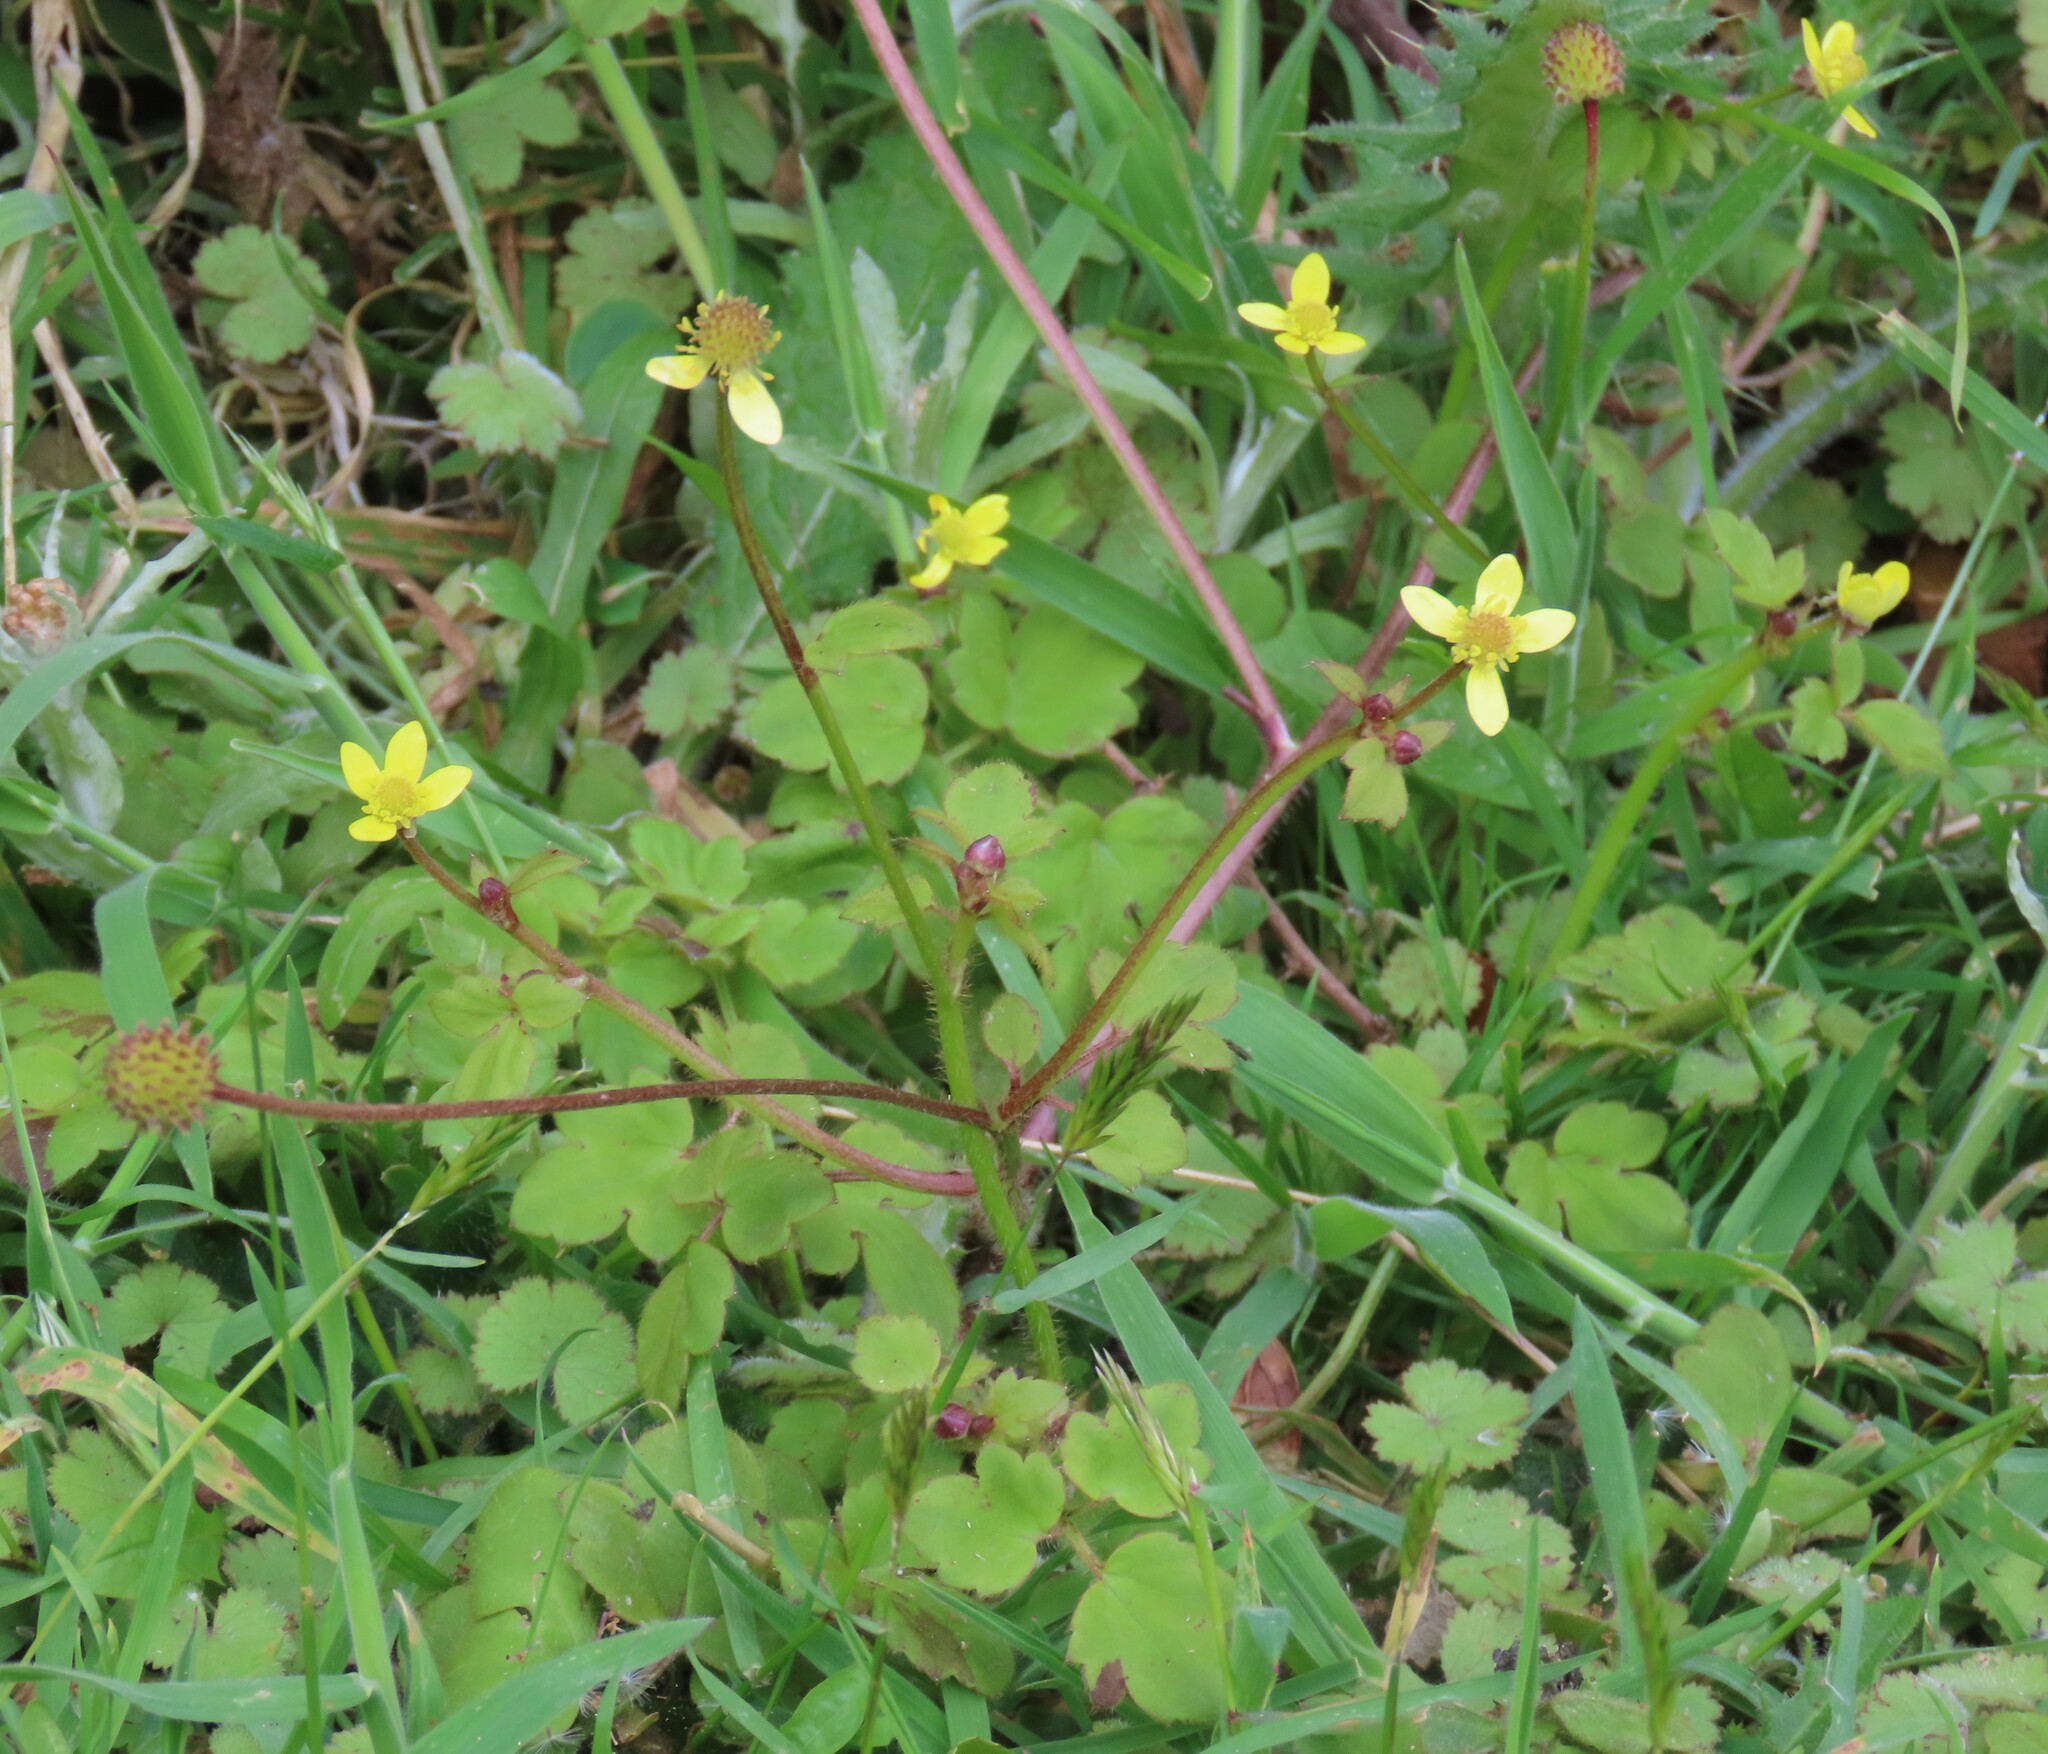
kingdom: Plantae
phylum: Tracheophyta
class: Magnoliopsida
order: Ranunculales
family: Ranunculaceae
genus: Ranunculus
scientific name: Ranunculus reflexus
